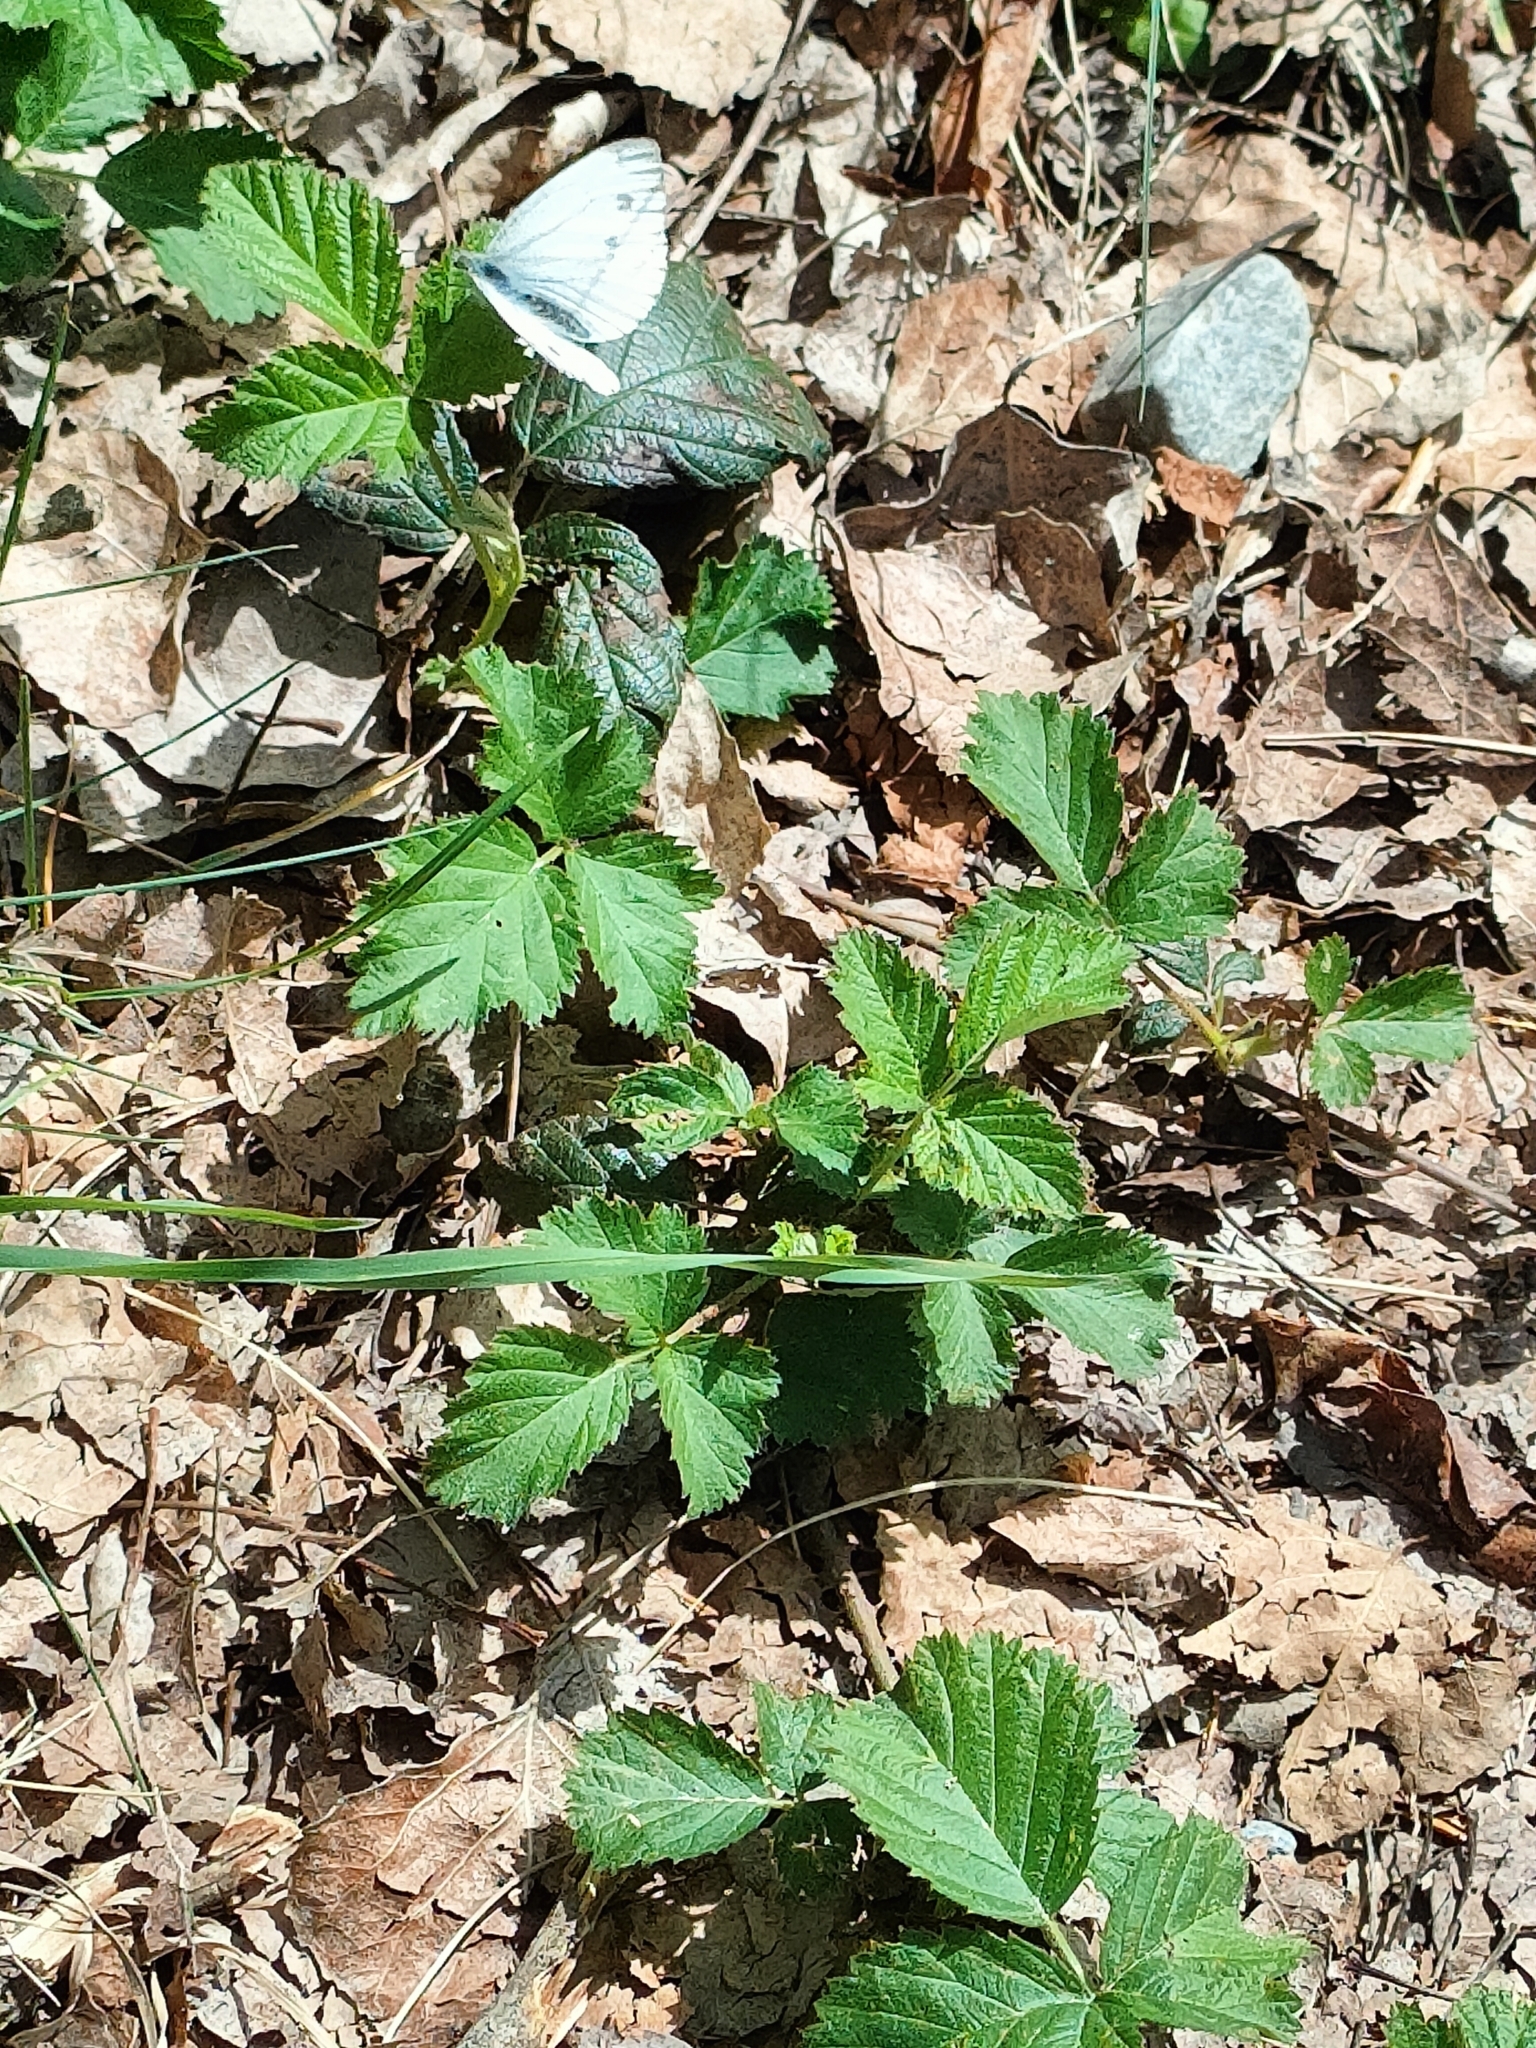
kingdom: Animalia
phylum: Arthropoda
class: Insecta
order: Lepidoptera
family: Pieridae
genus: Pieris
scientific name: Pieris napi
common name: Green-veined white
